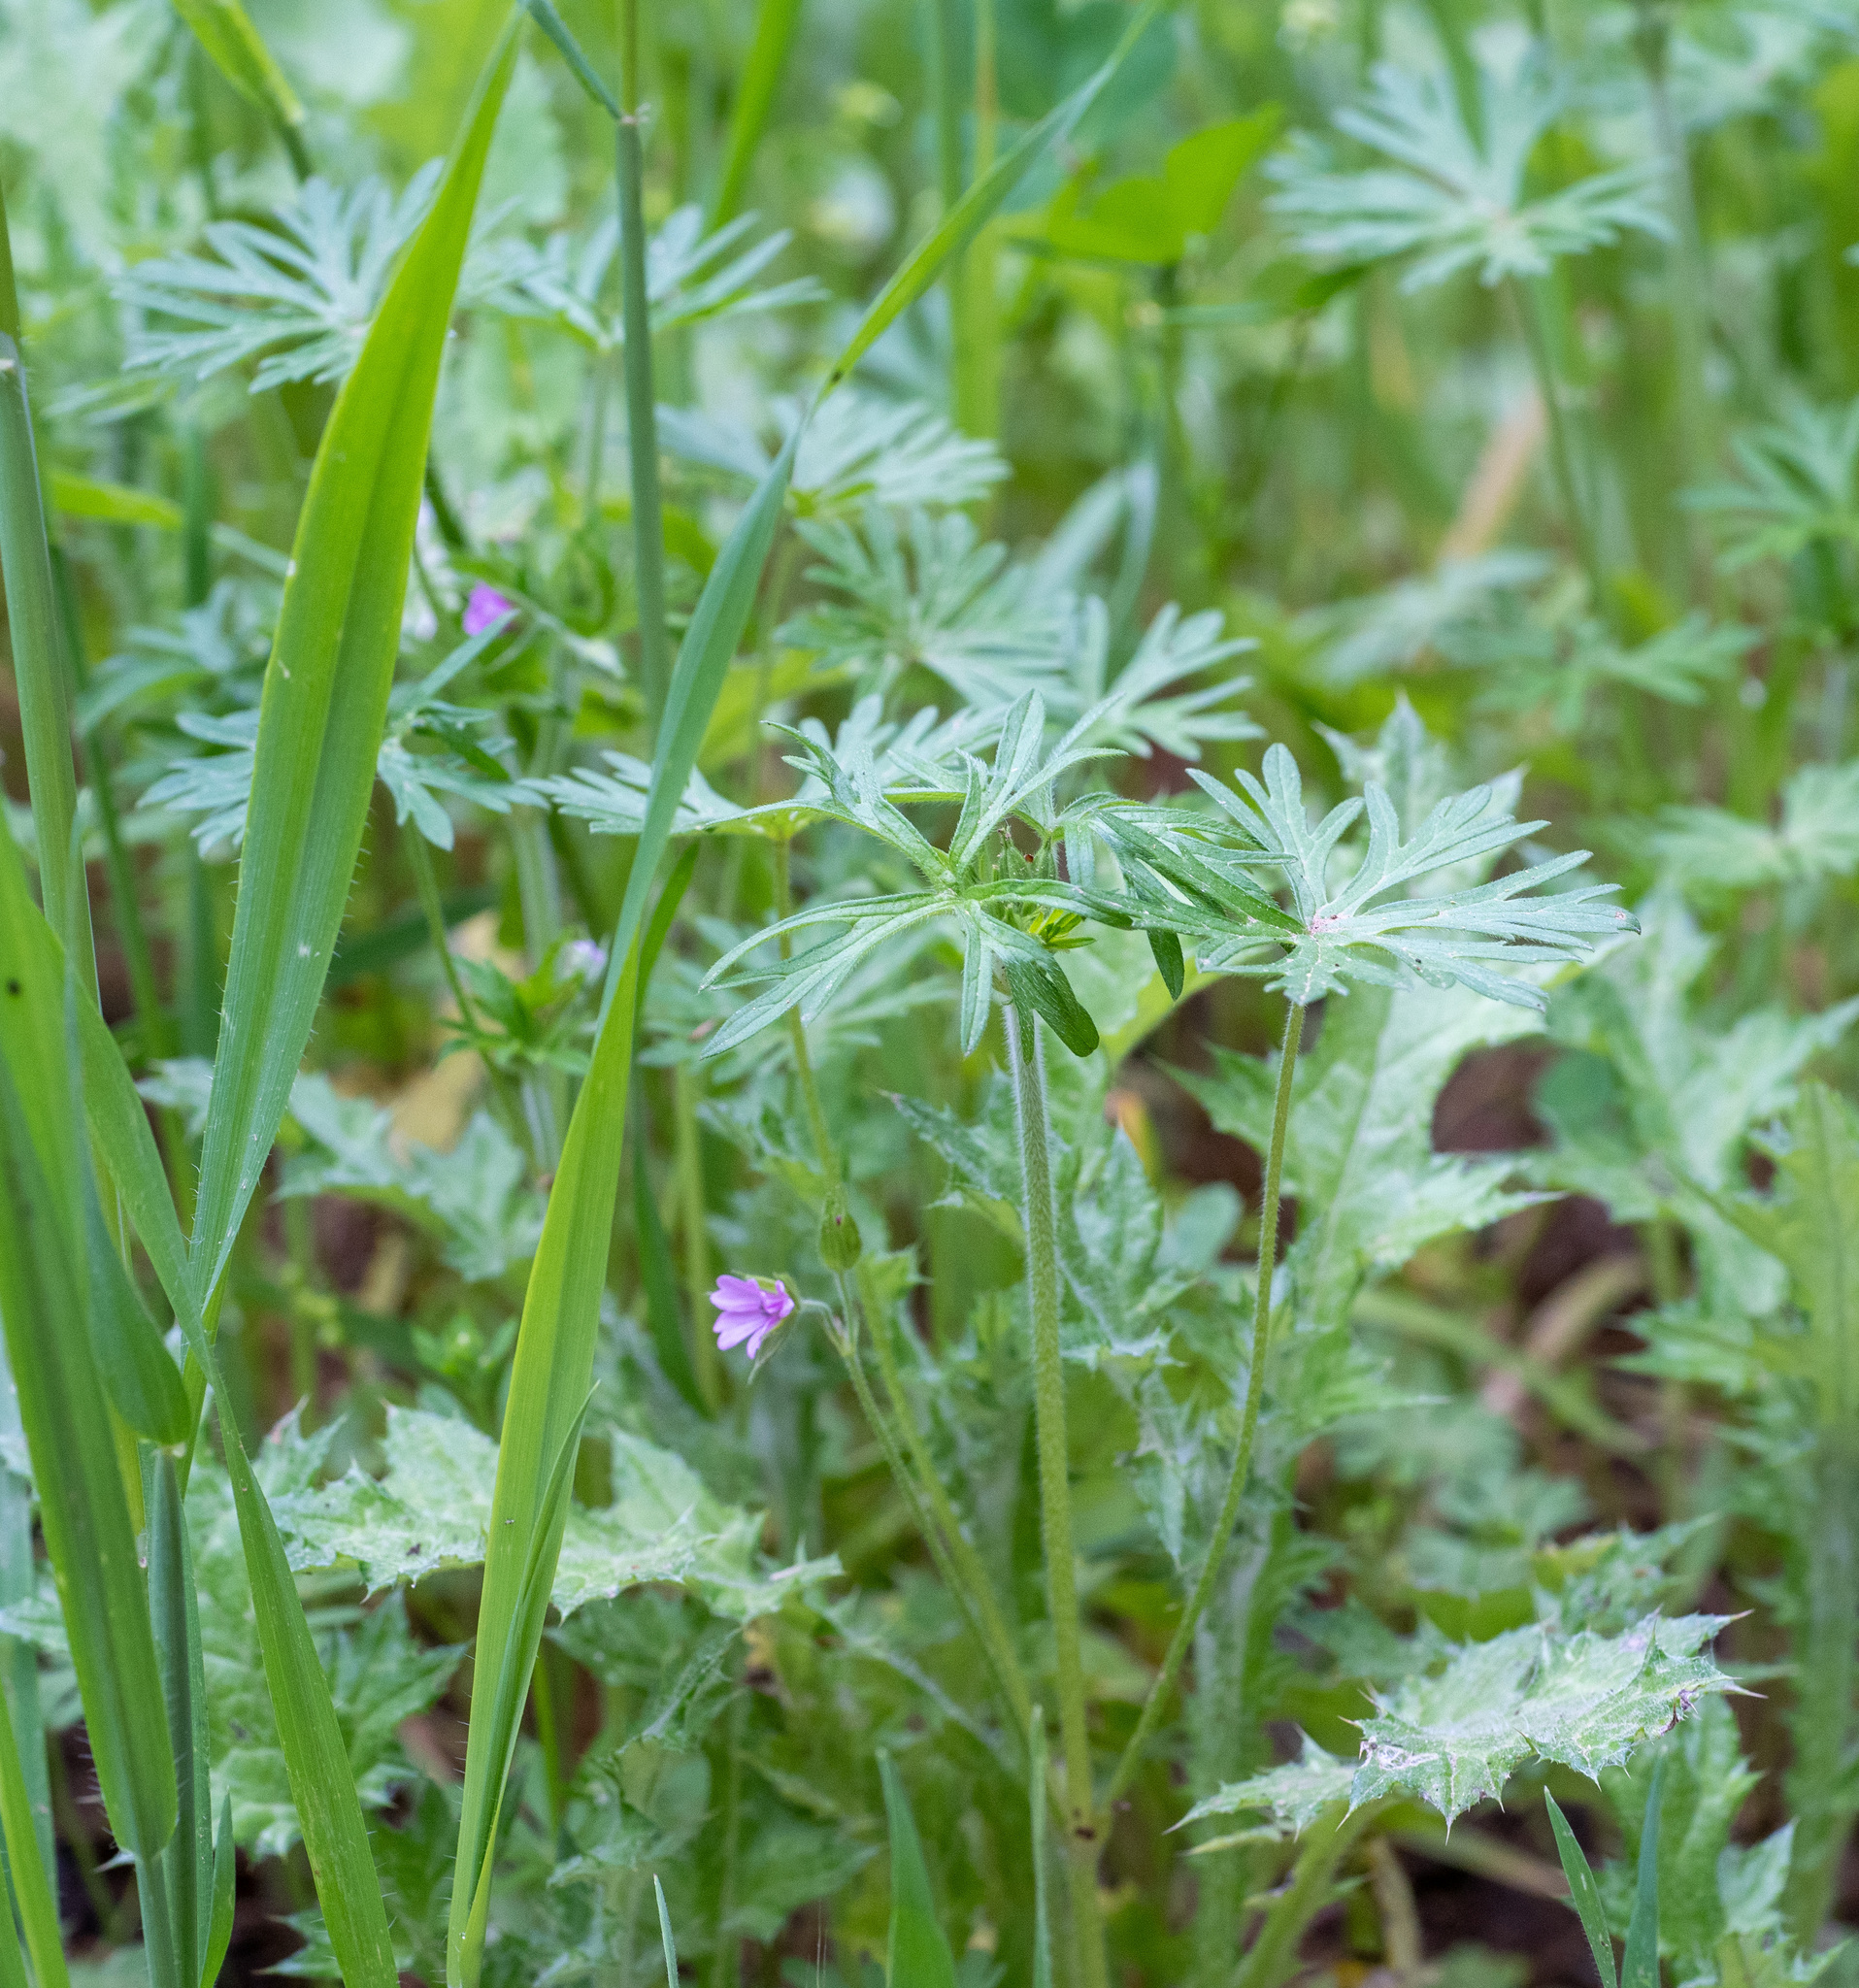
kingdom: Plantae
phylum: Tracheophyta
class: Magnoliopsida
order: Geraniales
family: Geraniaceae
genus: Geranium
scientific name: Geranium dissectum
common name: Cut-leaved crane's-bill
